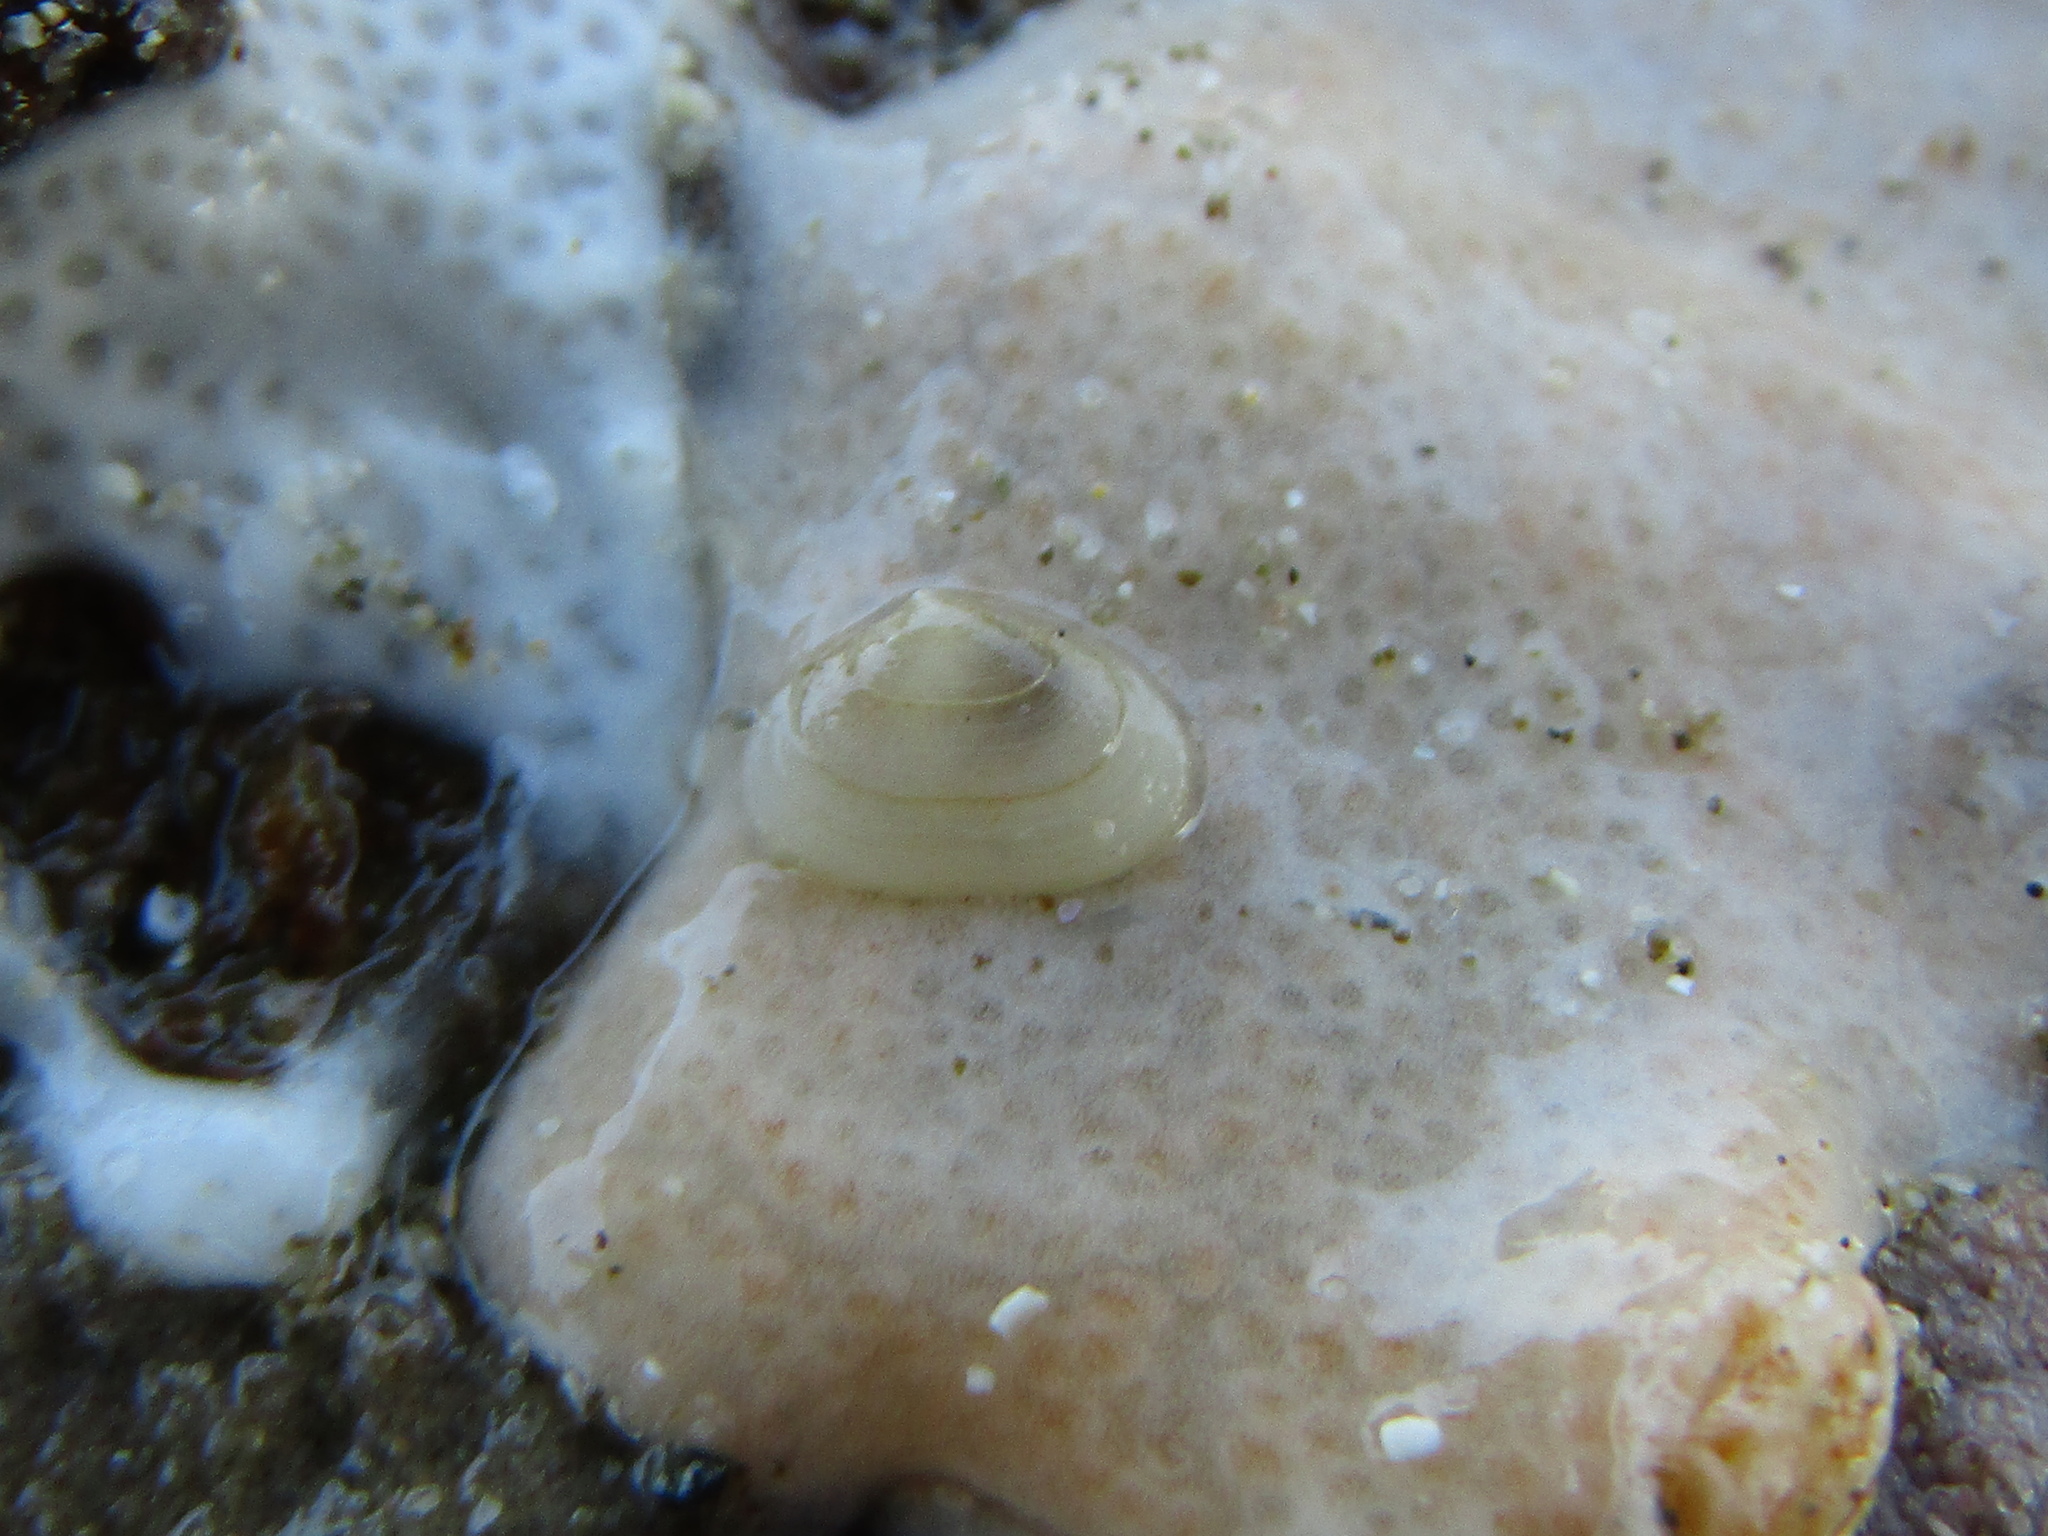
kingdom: Animalia
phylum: Mollusca
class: Bivalvia
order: Galeommatida
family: Lasaeidae
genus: Borniola
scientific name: Borniola reniformis
